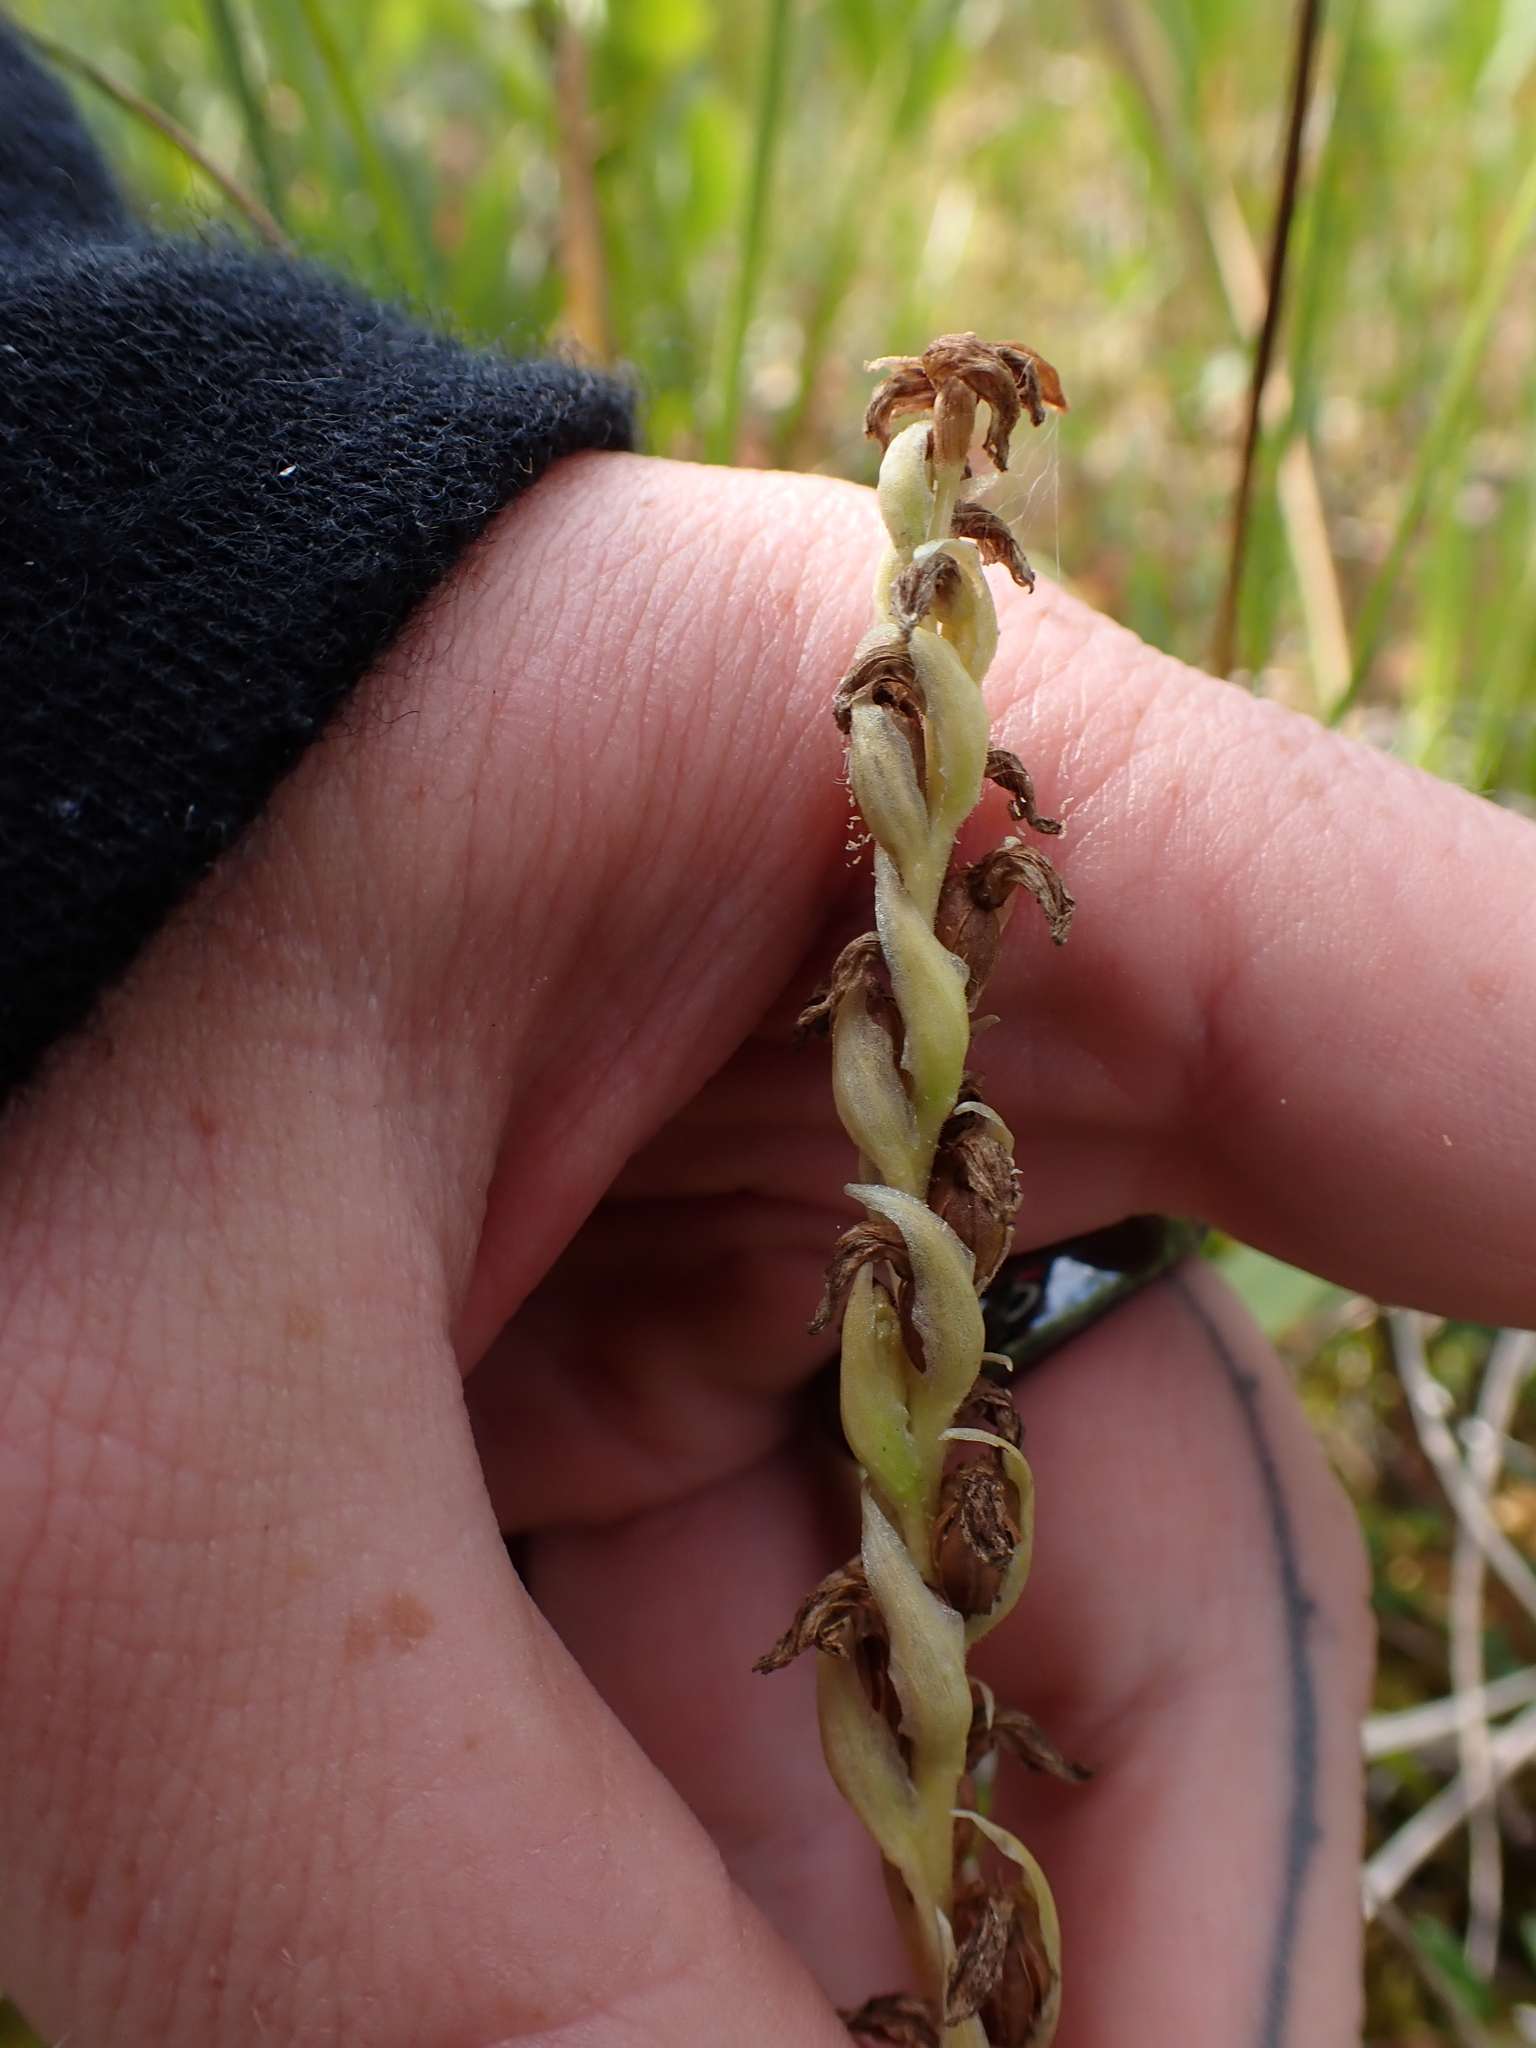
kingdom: Plantae
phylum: Tracheophyta
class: Liliopsida
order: Asparagales
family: Orchidaceae
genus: Spiranthes
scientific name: Spiranthes romanzoffiana
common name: Irish lady's-tresses
